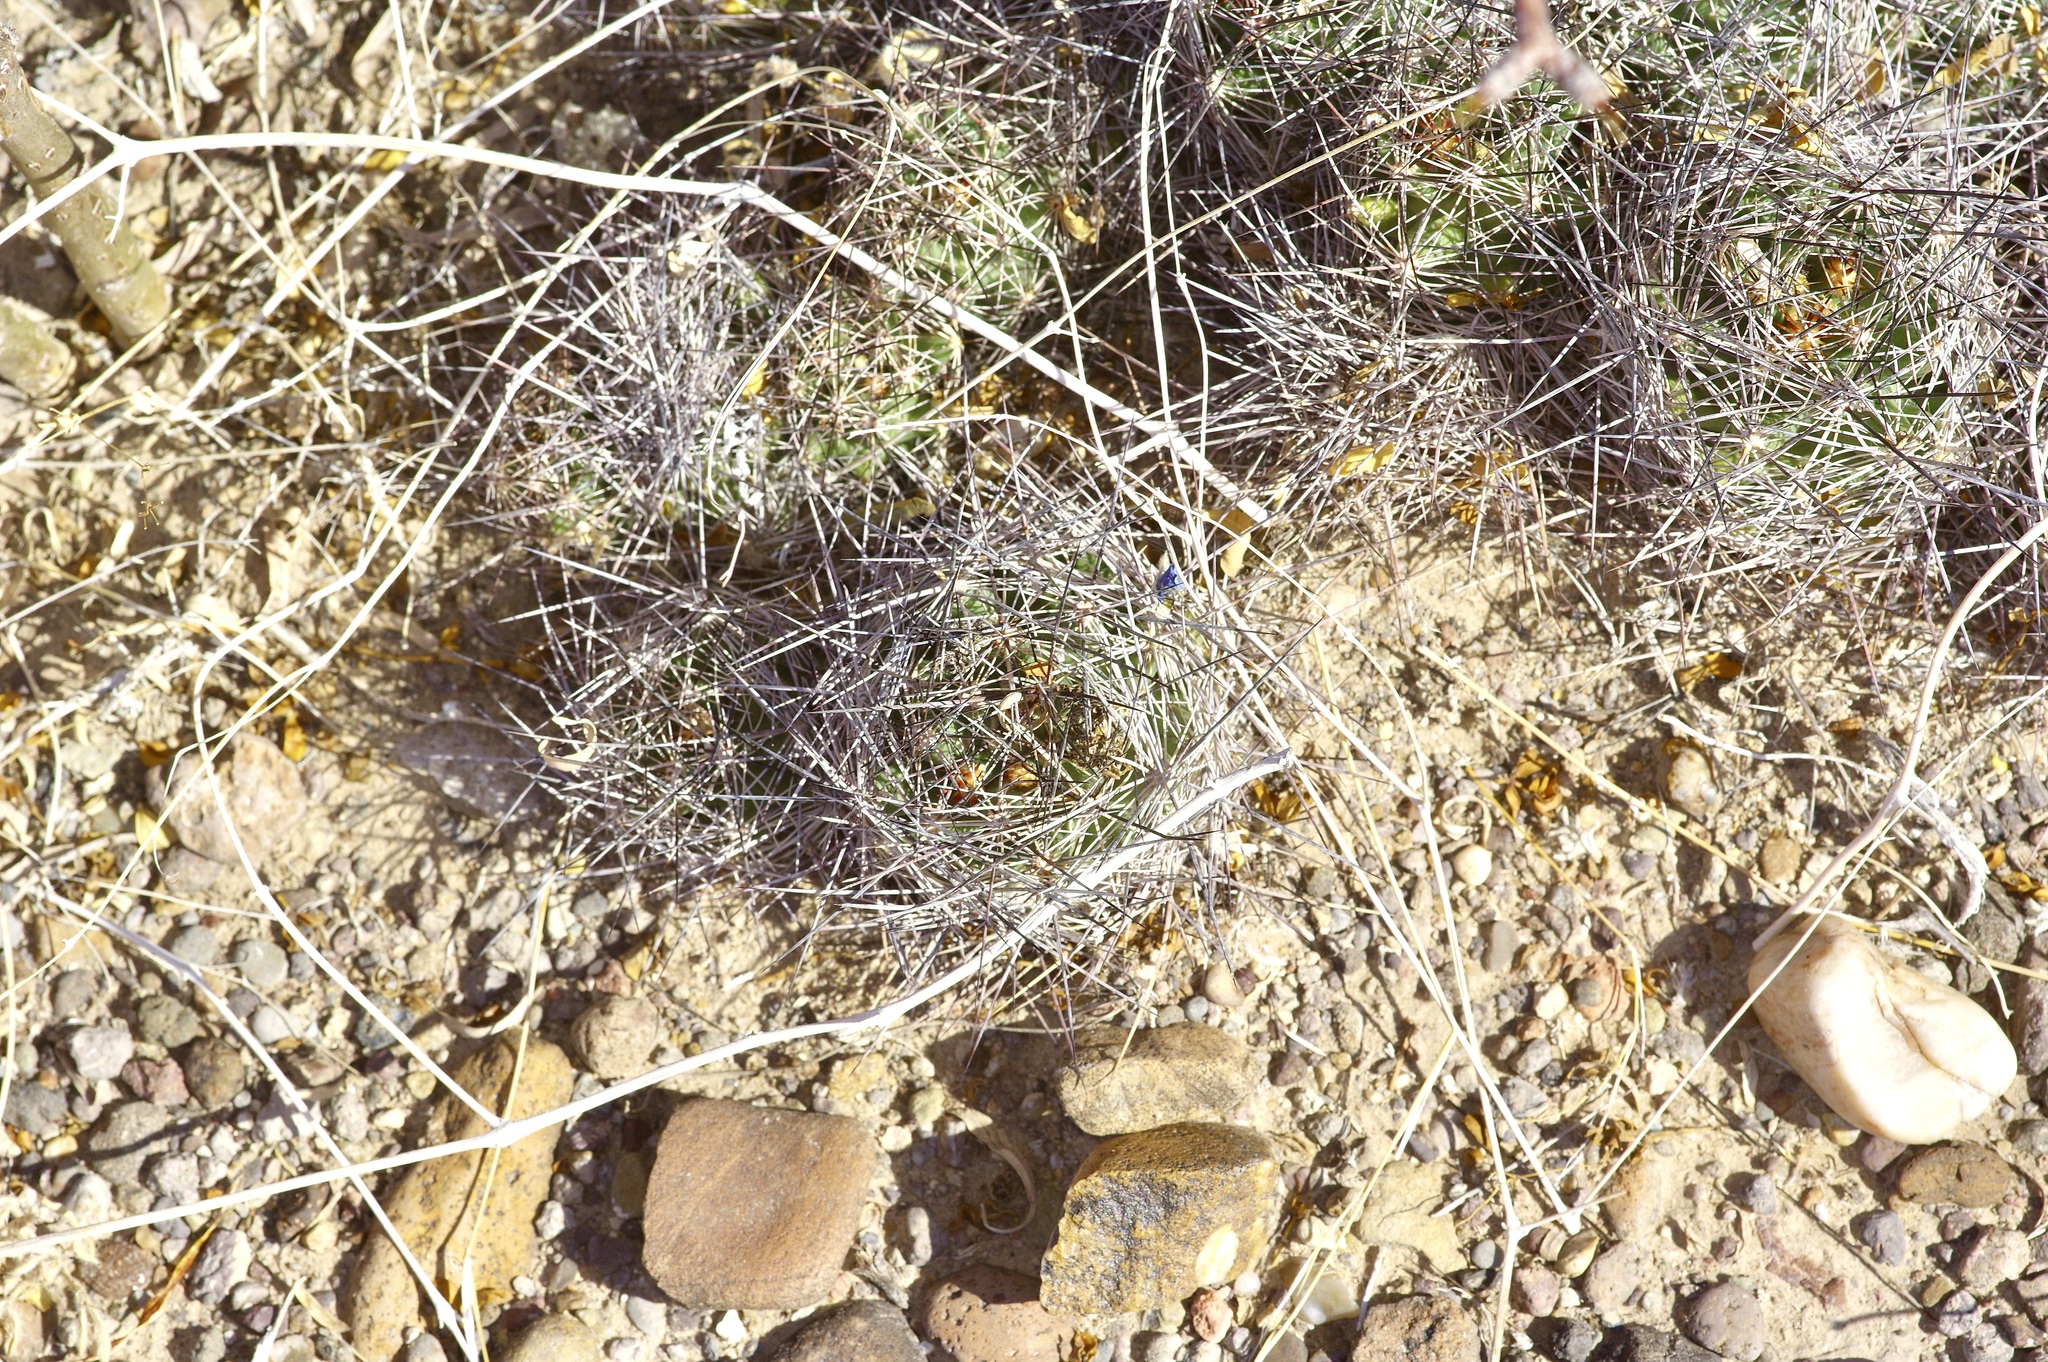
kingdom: Plantae
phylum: Tracheophyta
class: Magnoliopsida
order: Caryophyllales
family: Cactaceae
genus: Coryphantha
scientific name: Coryphantha macromeris
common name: Nipple beehive cactus
